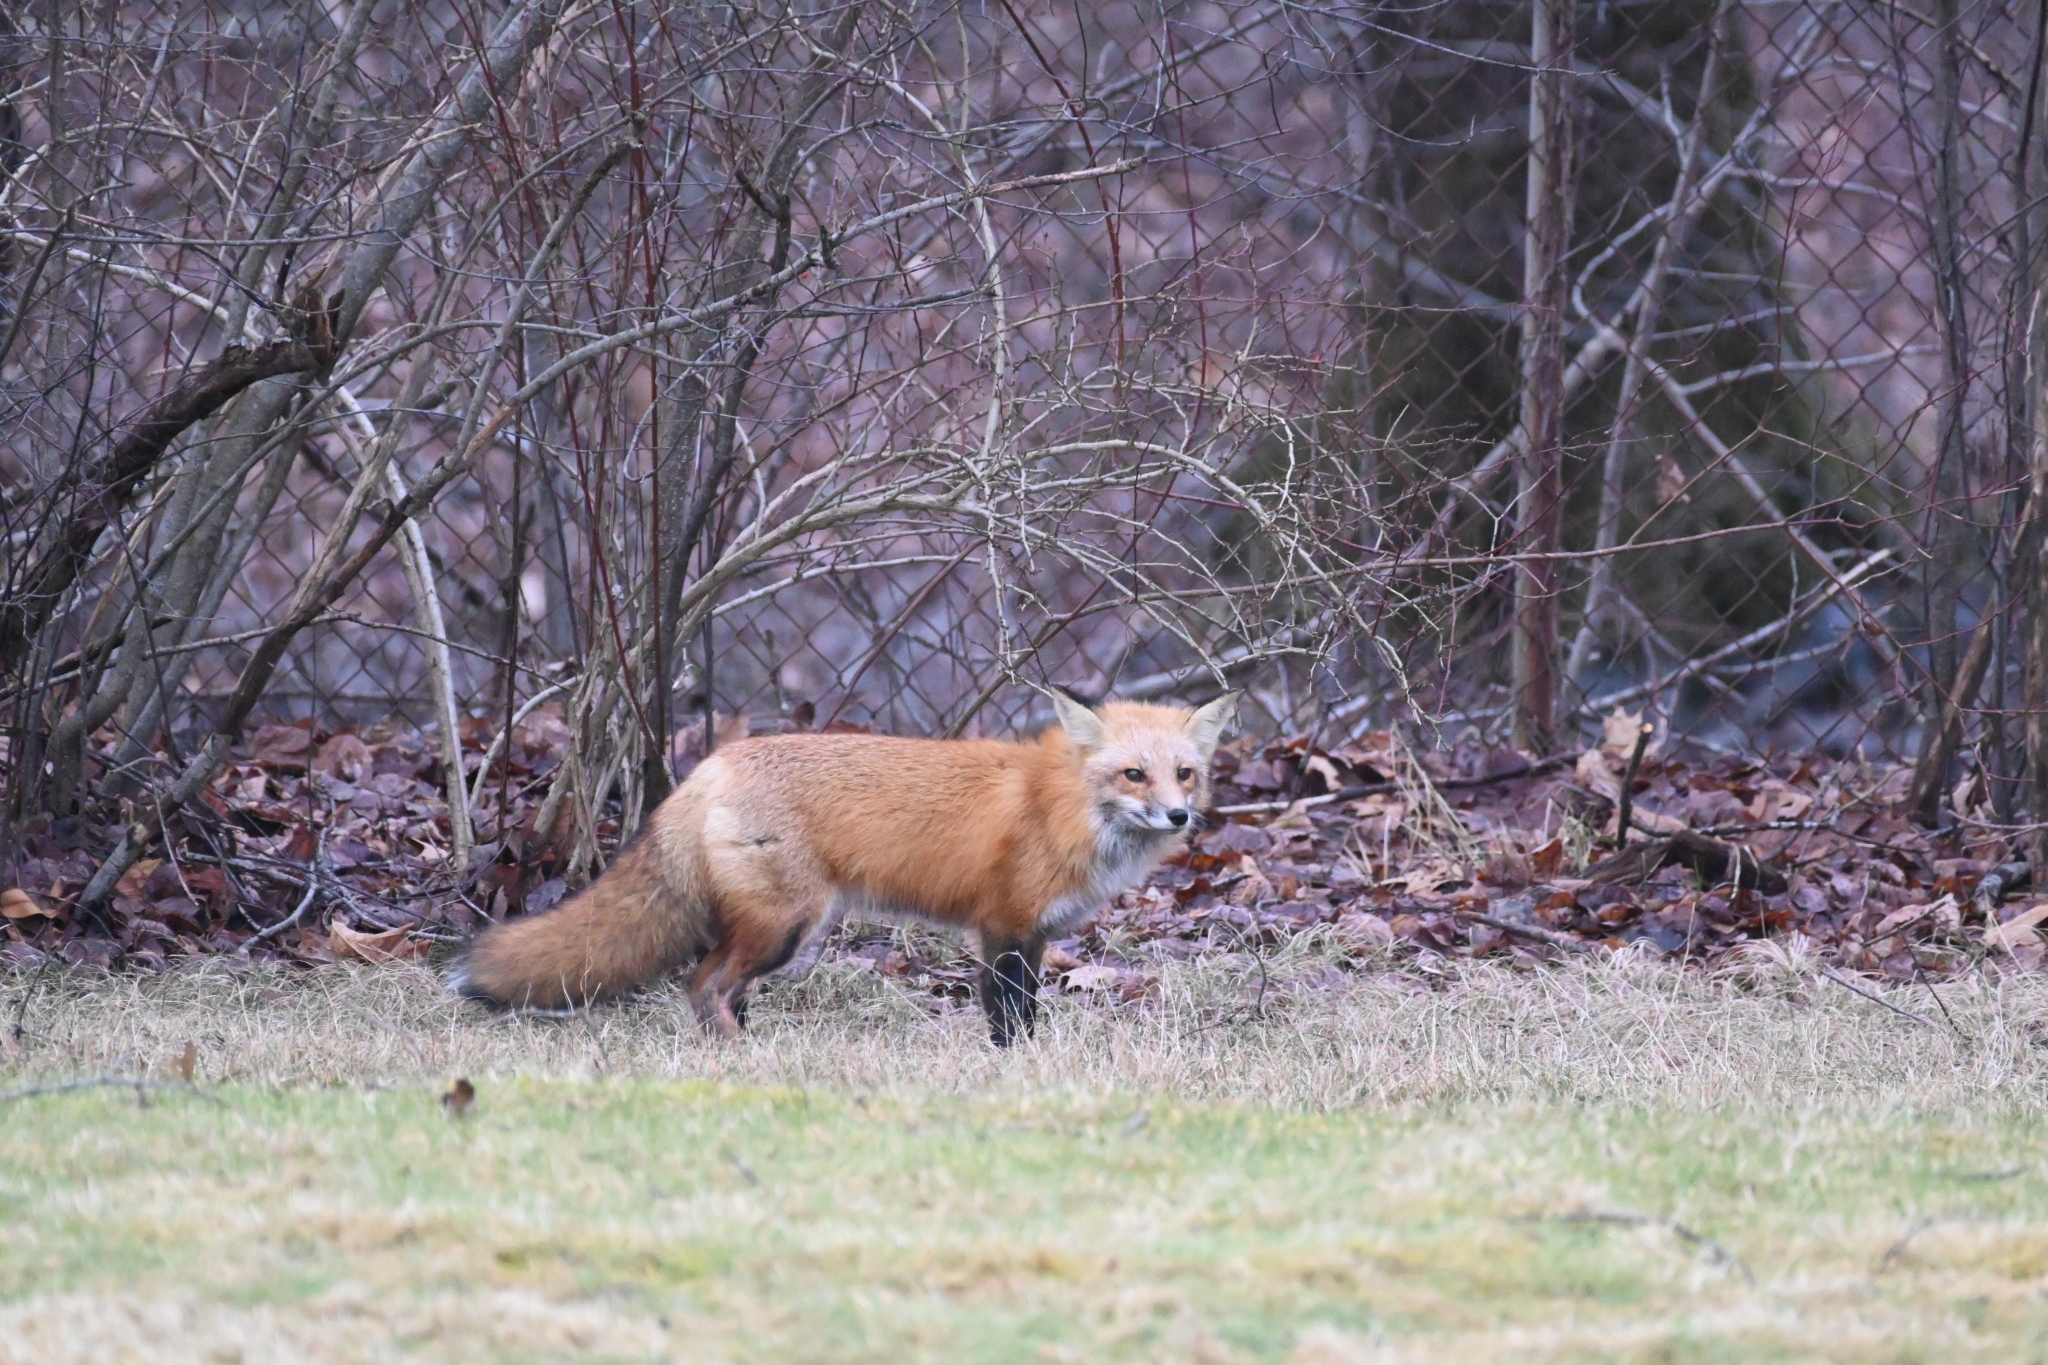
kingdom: Animalia
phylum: Chordata
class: Mammalia
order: Carnivora
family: Canidae
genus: Vulpes
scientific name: Vulpes vulpes
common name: Red fox
